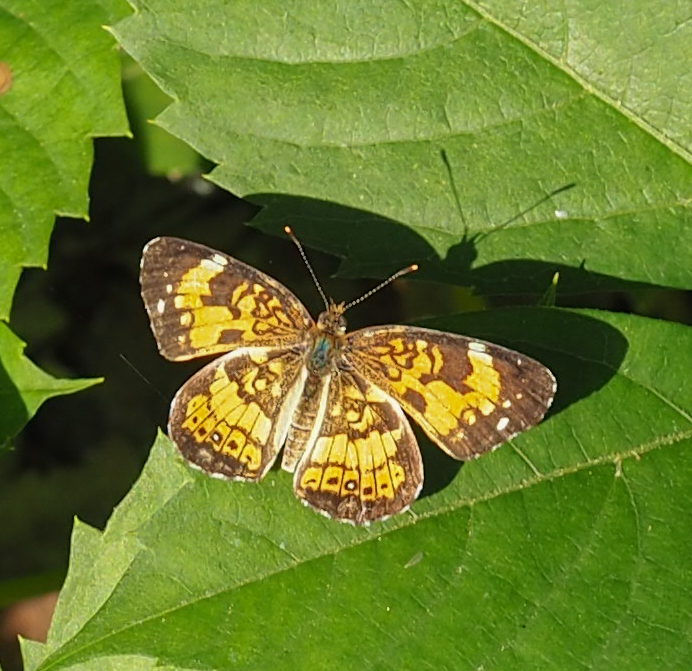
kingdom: Animalia
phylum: Arthropoda
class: Insecta
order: Lepidoptera
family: Nymphalidae
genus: Chlosyne
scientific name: Chlosyne nycteis
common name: Silvery checkerspot
